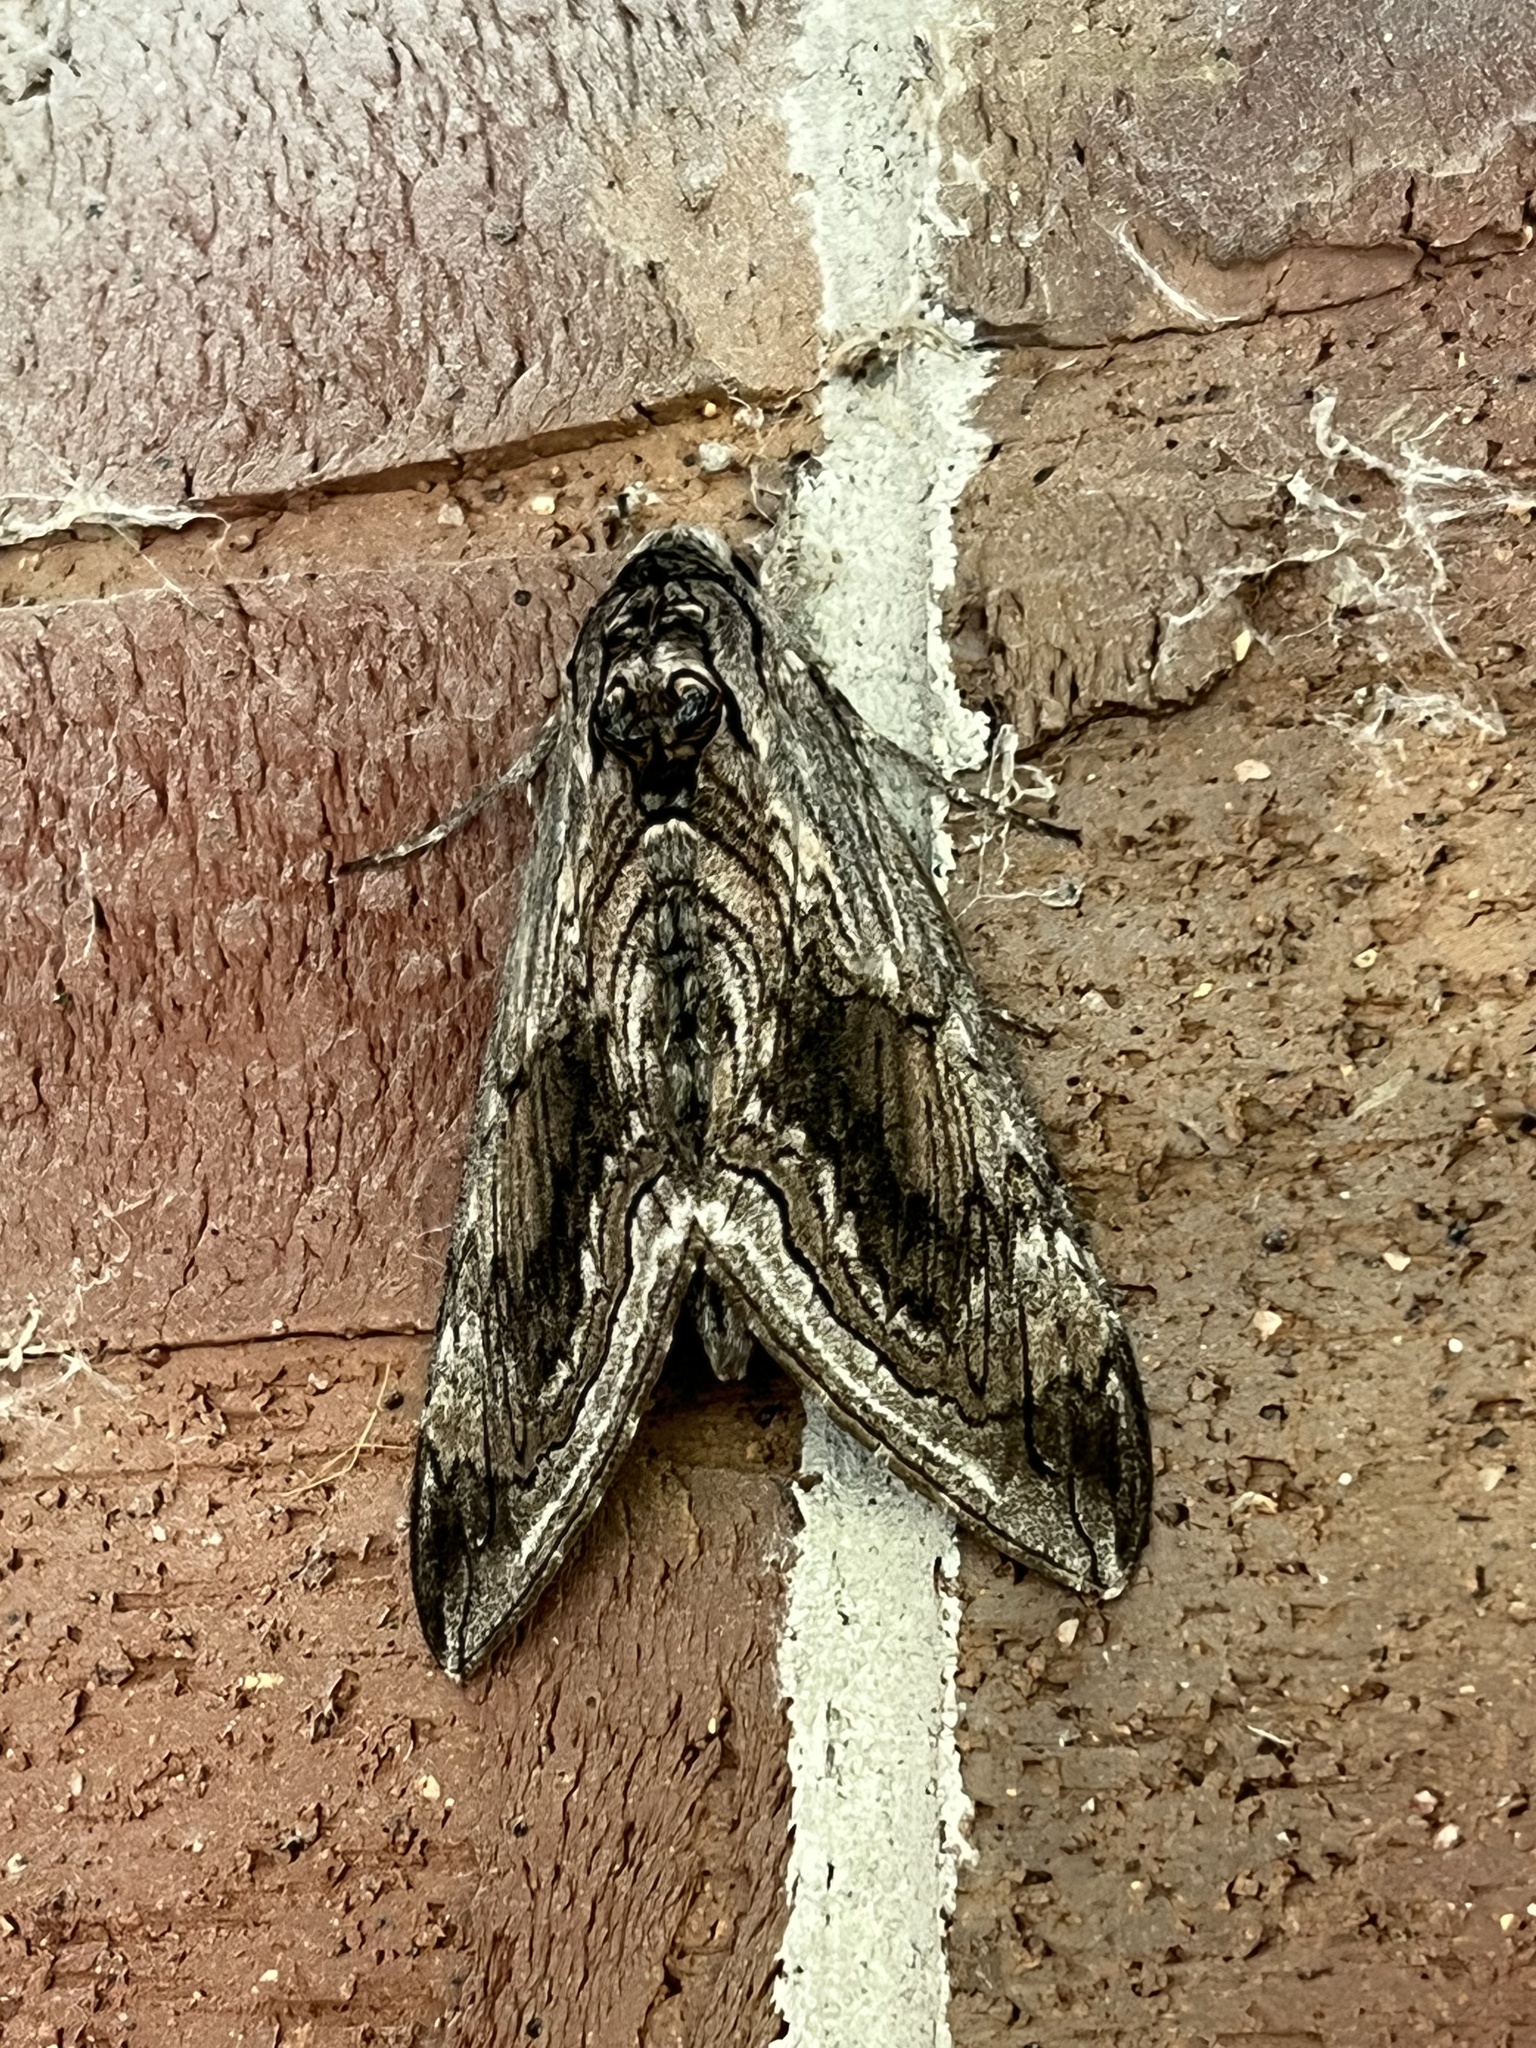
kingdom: Animalia
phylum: Arthropoda
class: Insecta
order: Lepidoptera
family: Sphingidae
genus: Manduca
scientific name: Manduca quinquemaculatus
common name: Five-spotted hawk-moth
